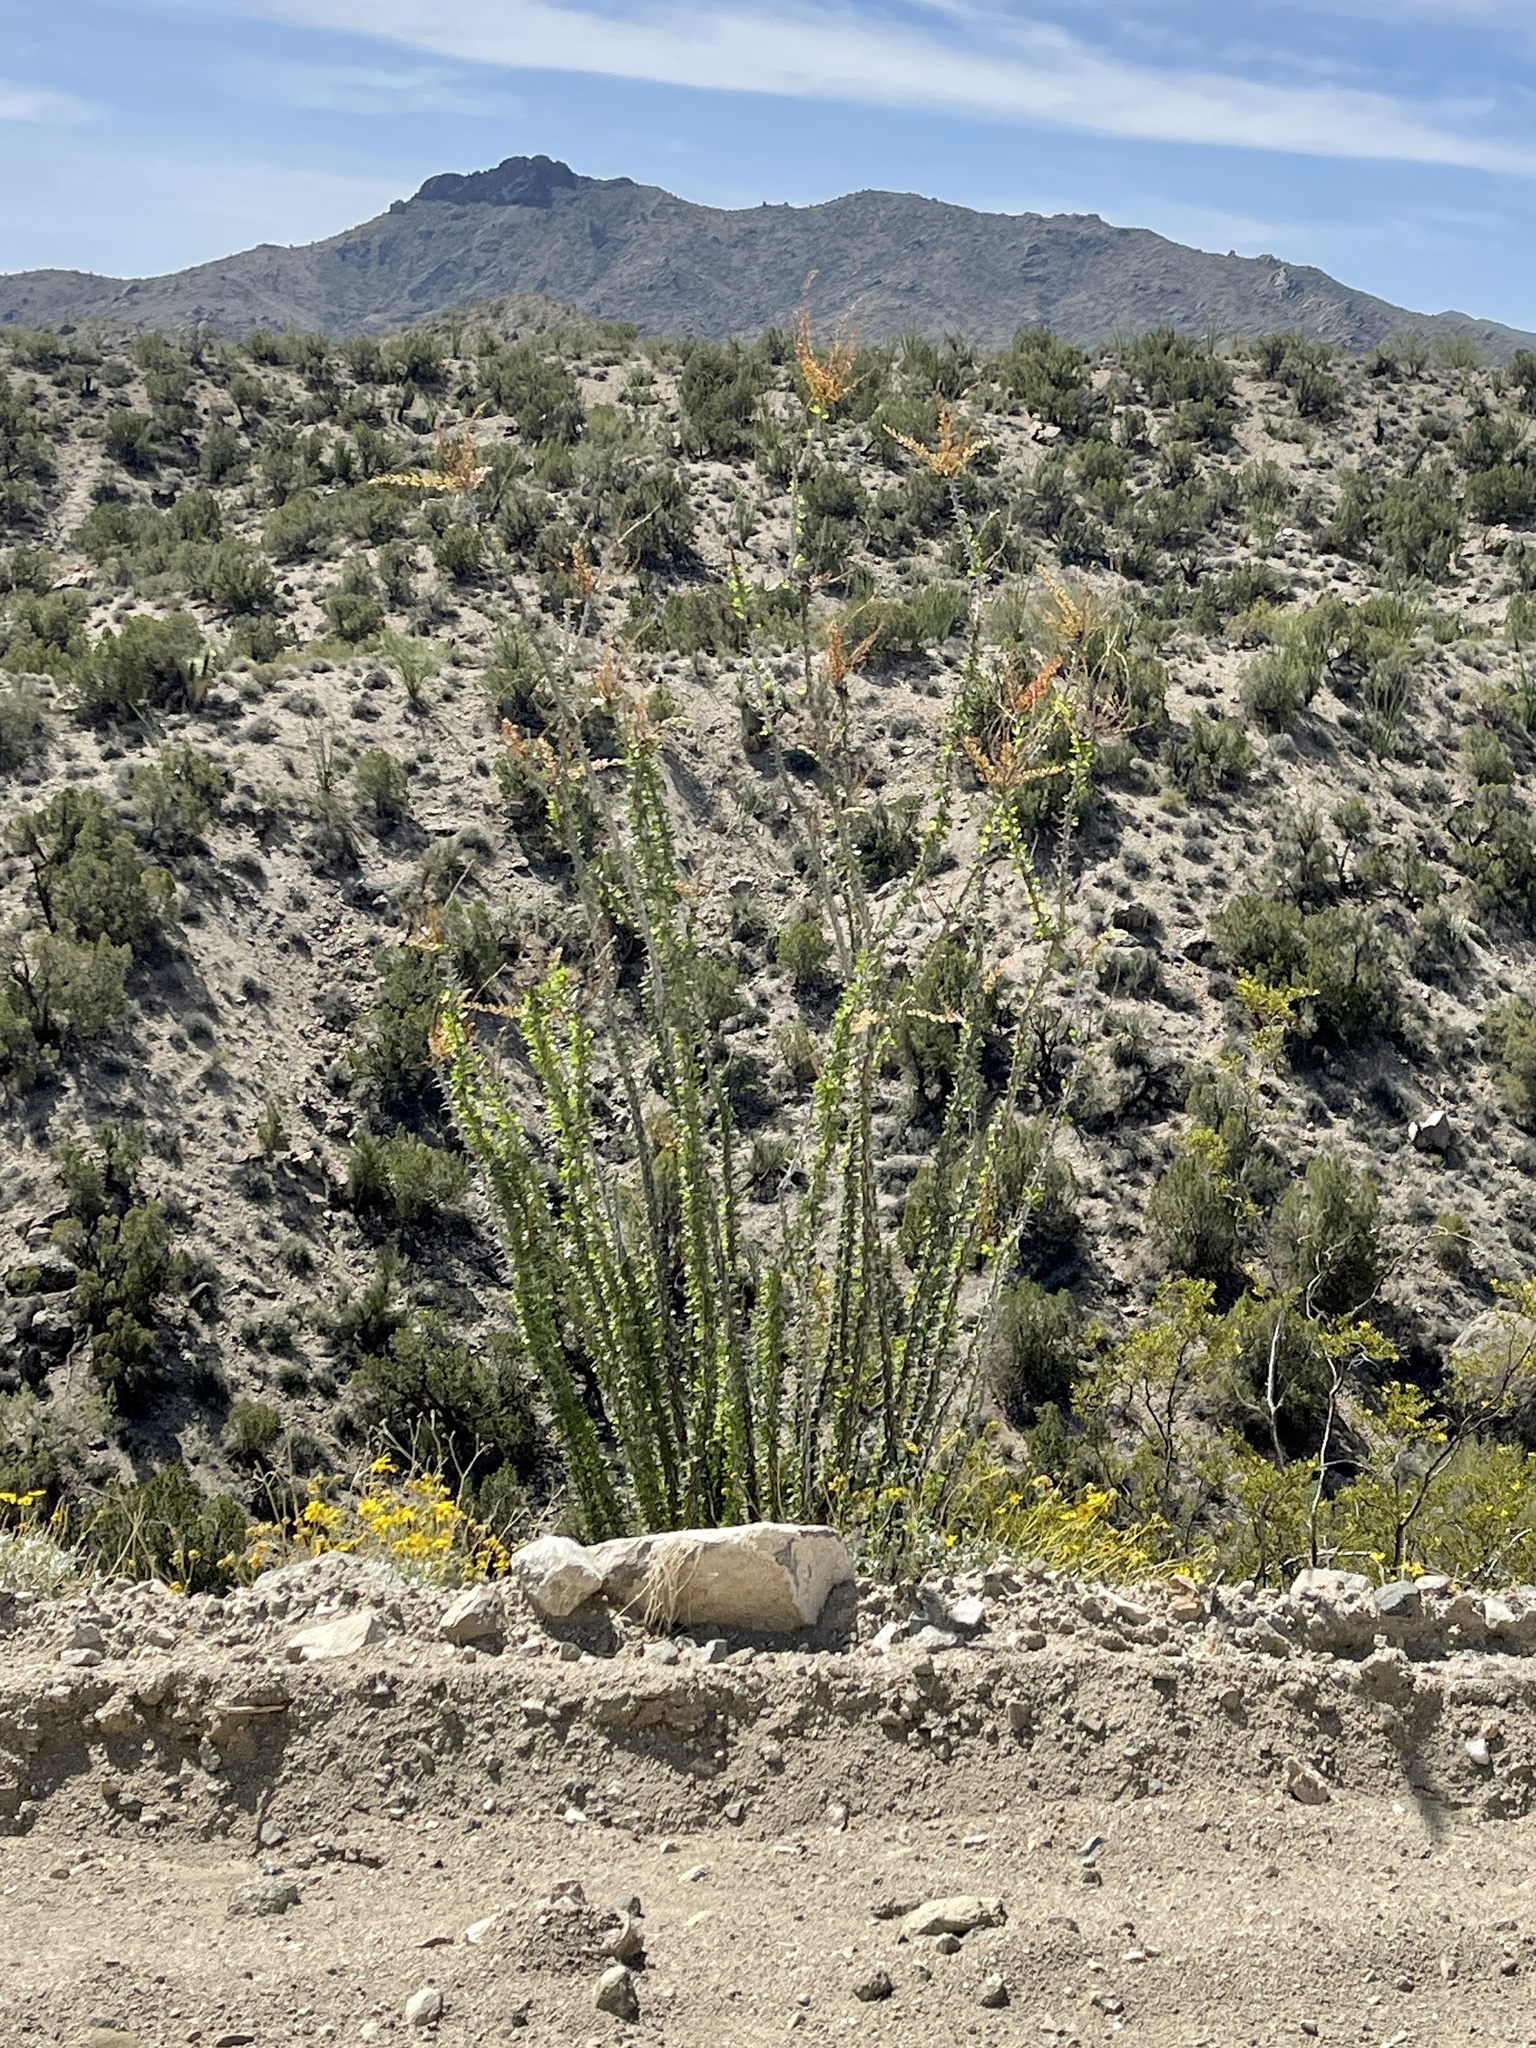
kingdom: Plantae
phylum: Tracheophyta
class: Magnoliopsida
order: Ericales
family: Fouquieriaceae
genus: Fouquieria
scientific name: Fouquieria splendens
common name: Vine-cactus
